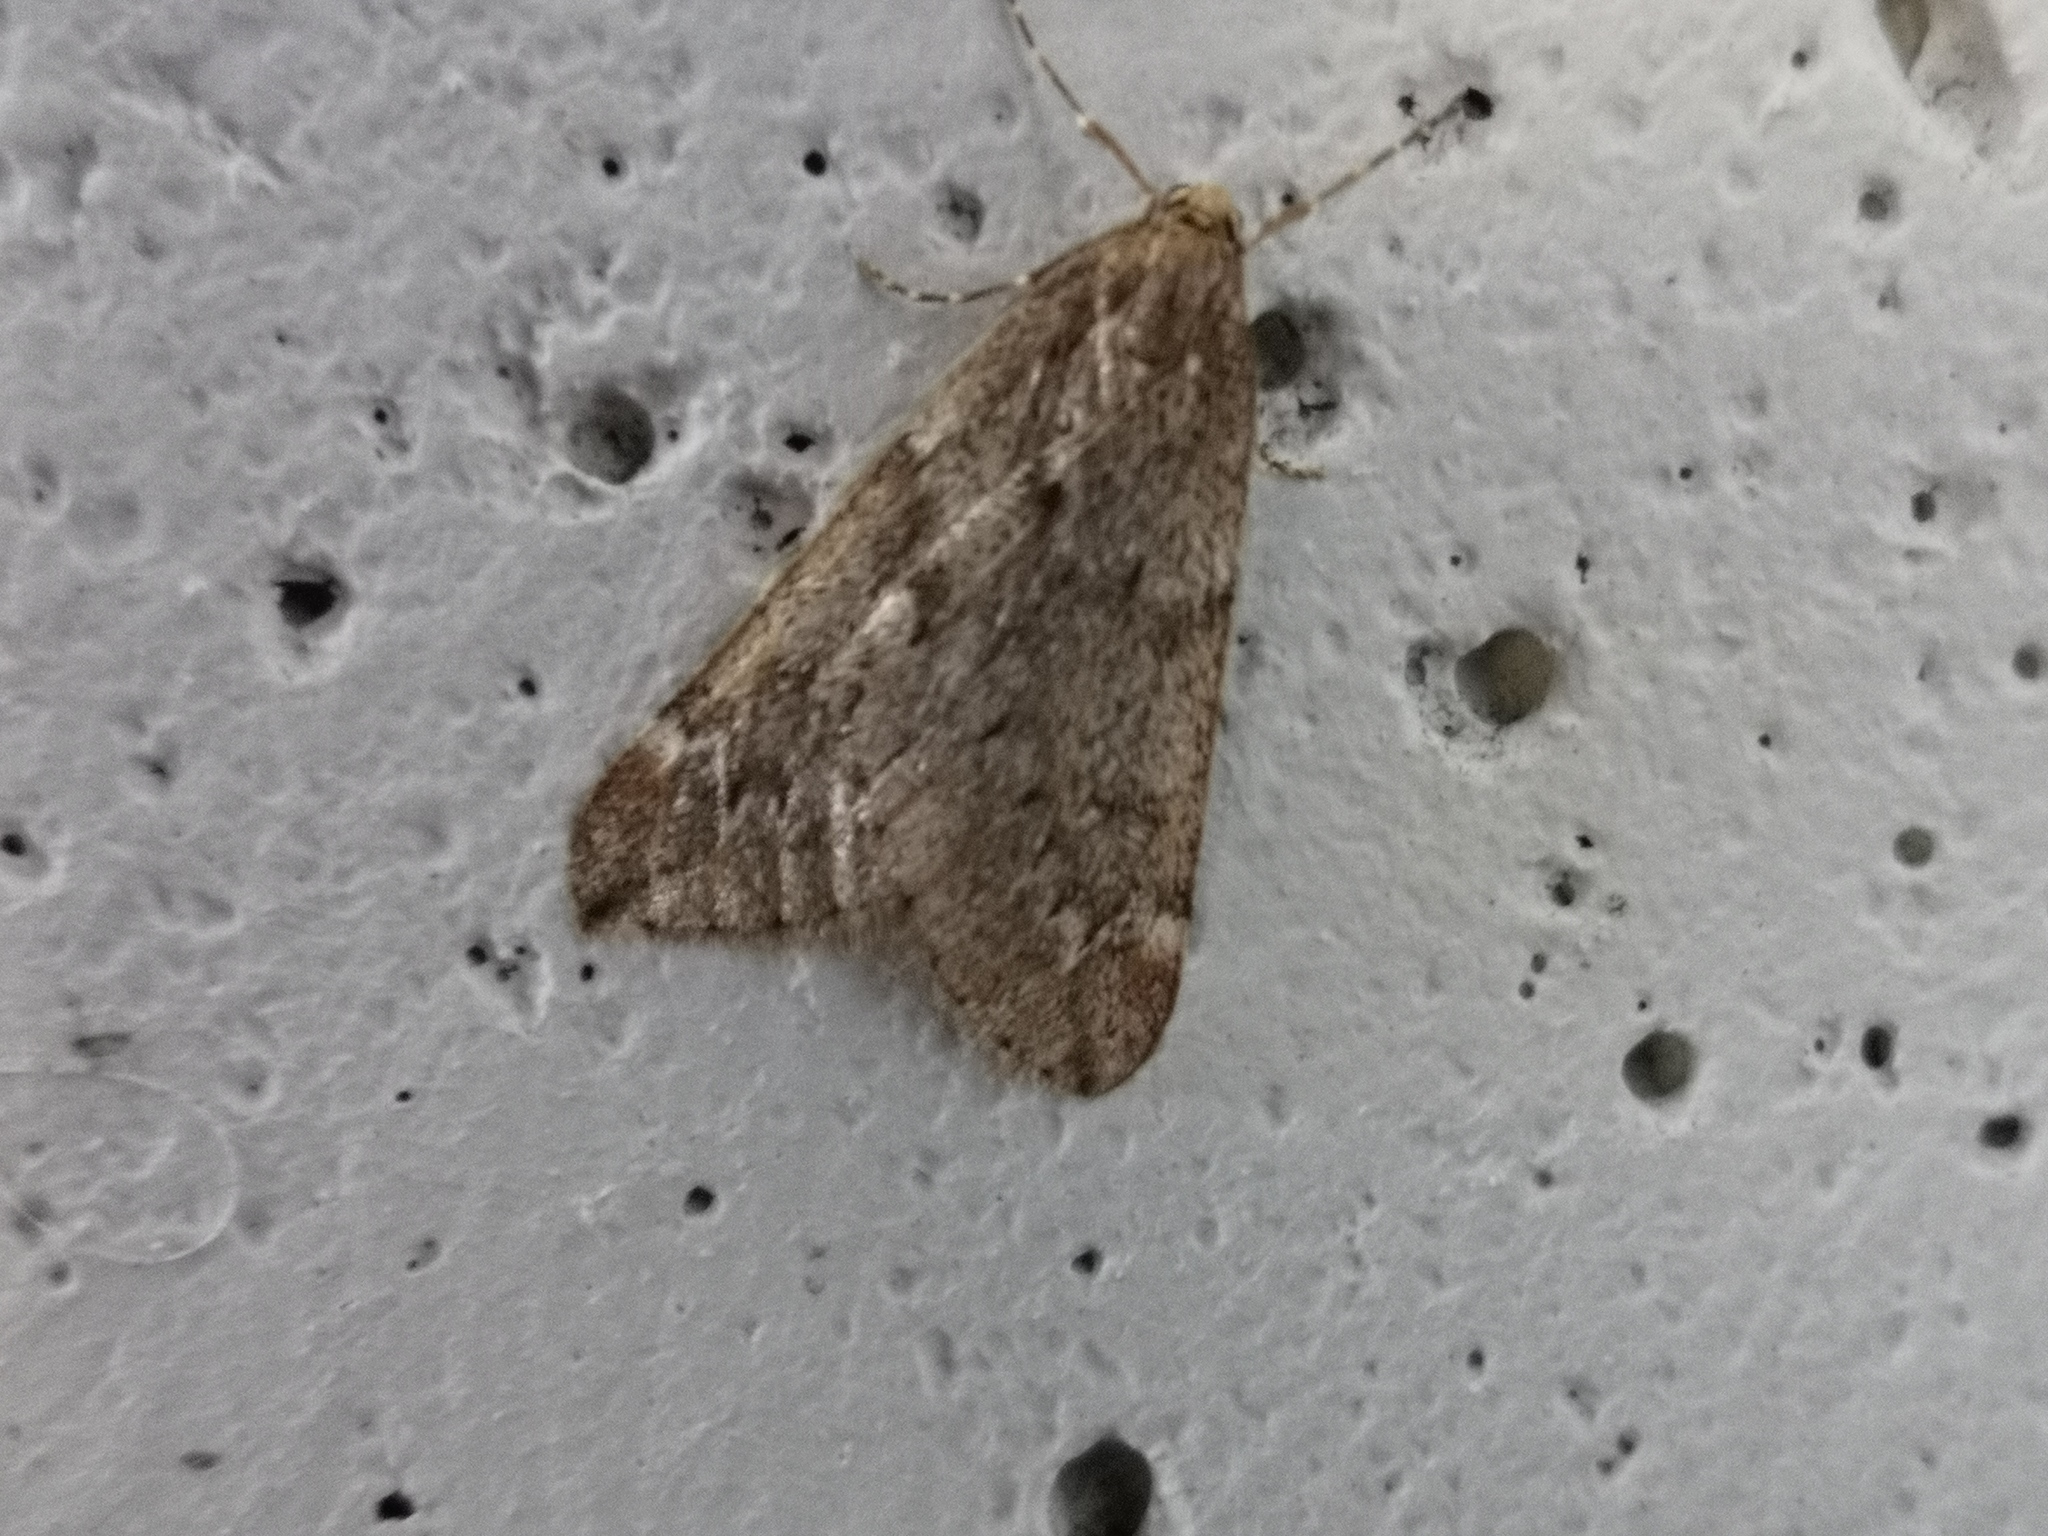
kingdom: Animalia
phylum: Arthropoda
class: Insecta
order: Lepidoptera
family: Geometridae
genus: Alsophila
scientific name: Alsophila aescularia
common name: March moth
